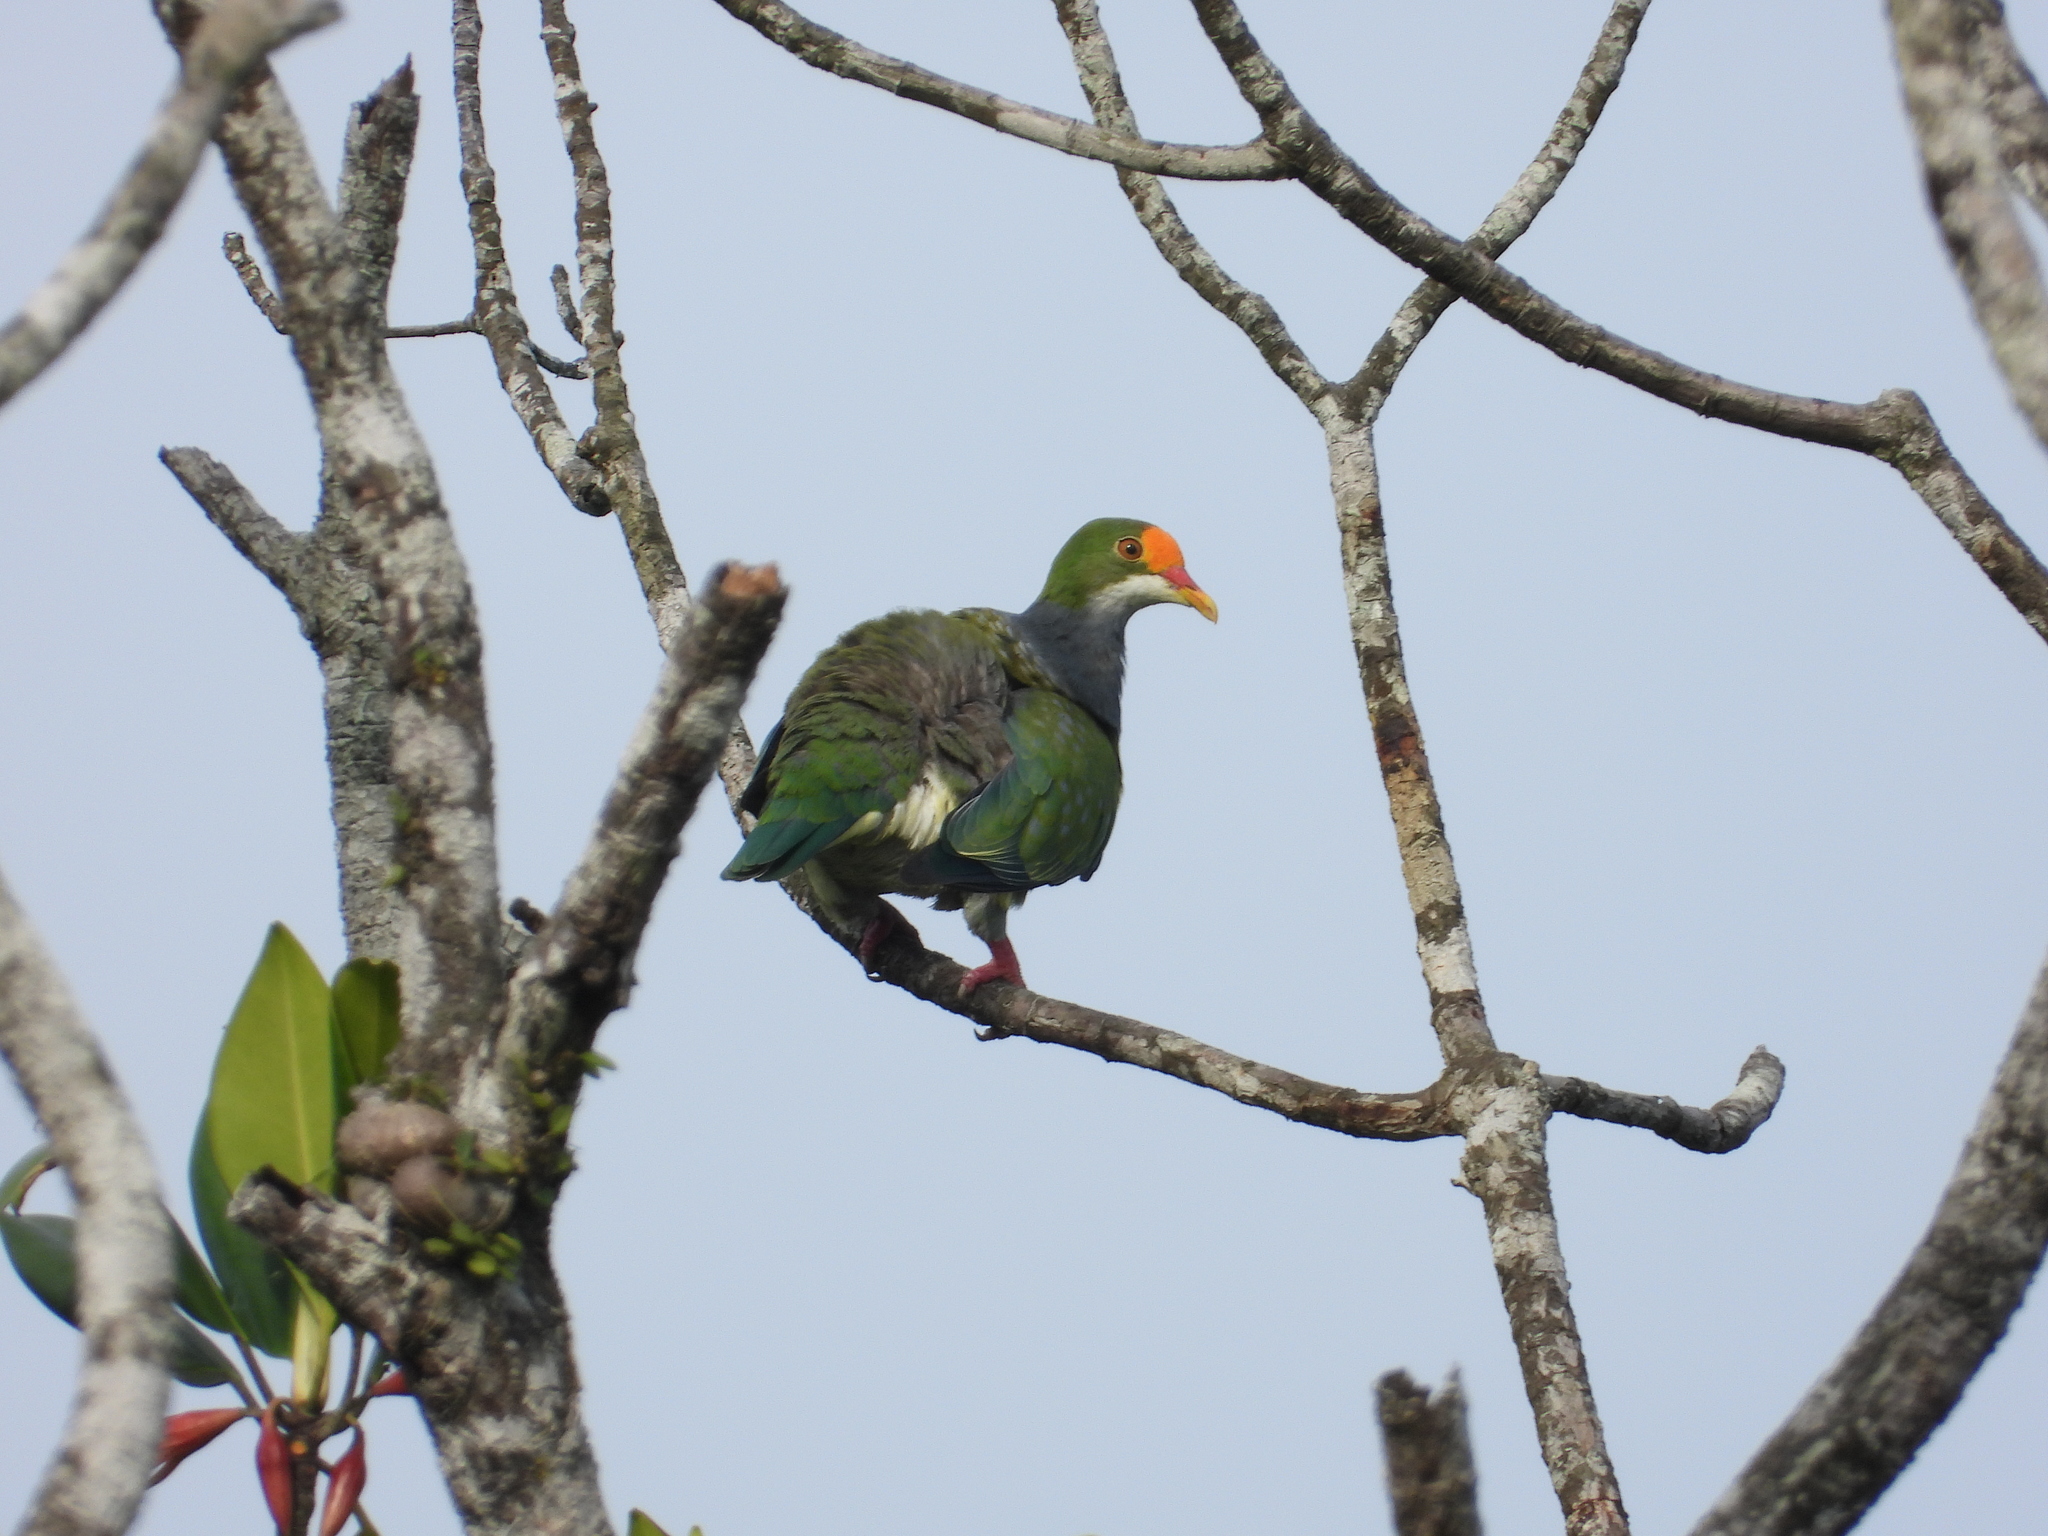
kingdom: Animalia
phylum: Chordata
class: Aves
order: Columbiformes
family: Columbidae
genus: Ptilinopus
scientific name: Ptilinopus aurantiifrons
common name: Orange-fronted fruit dove
